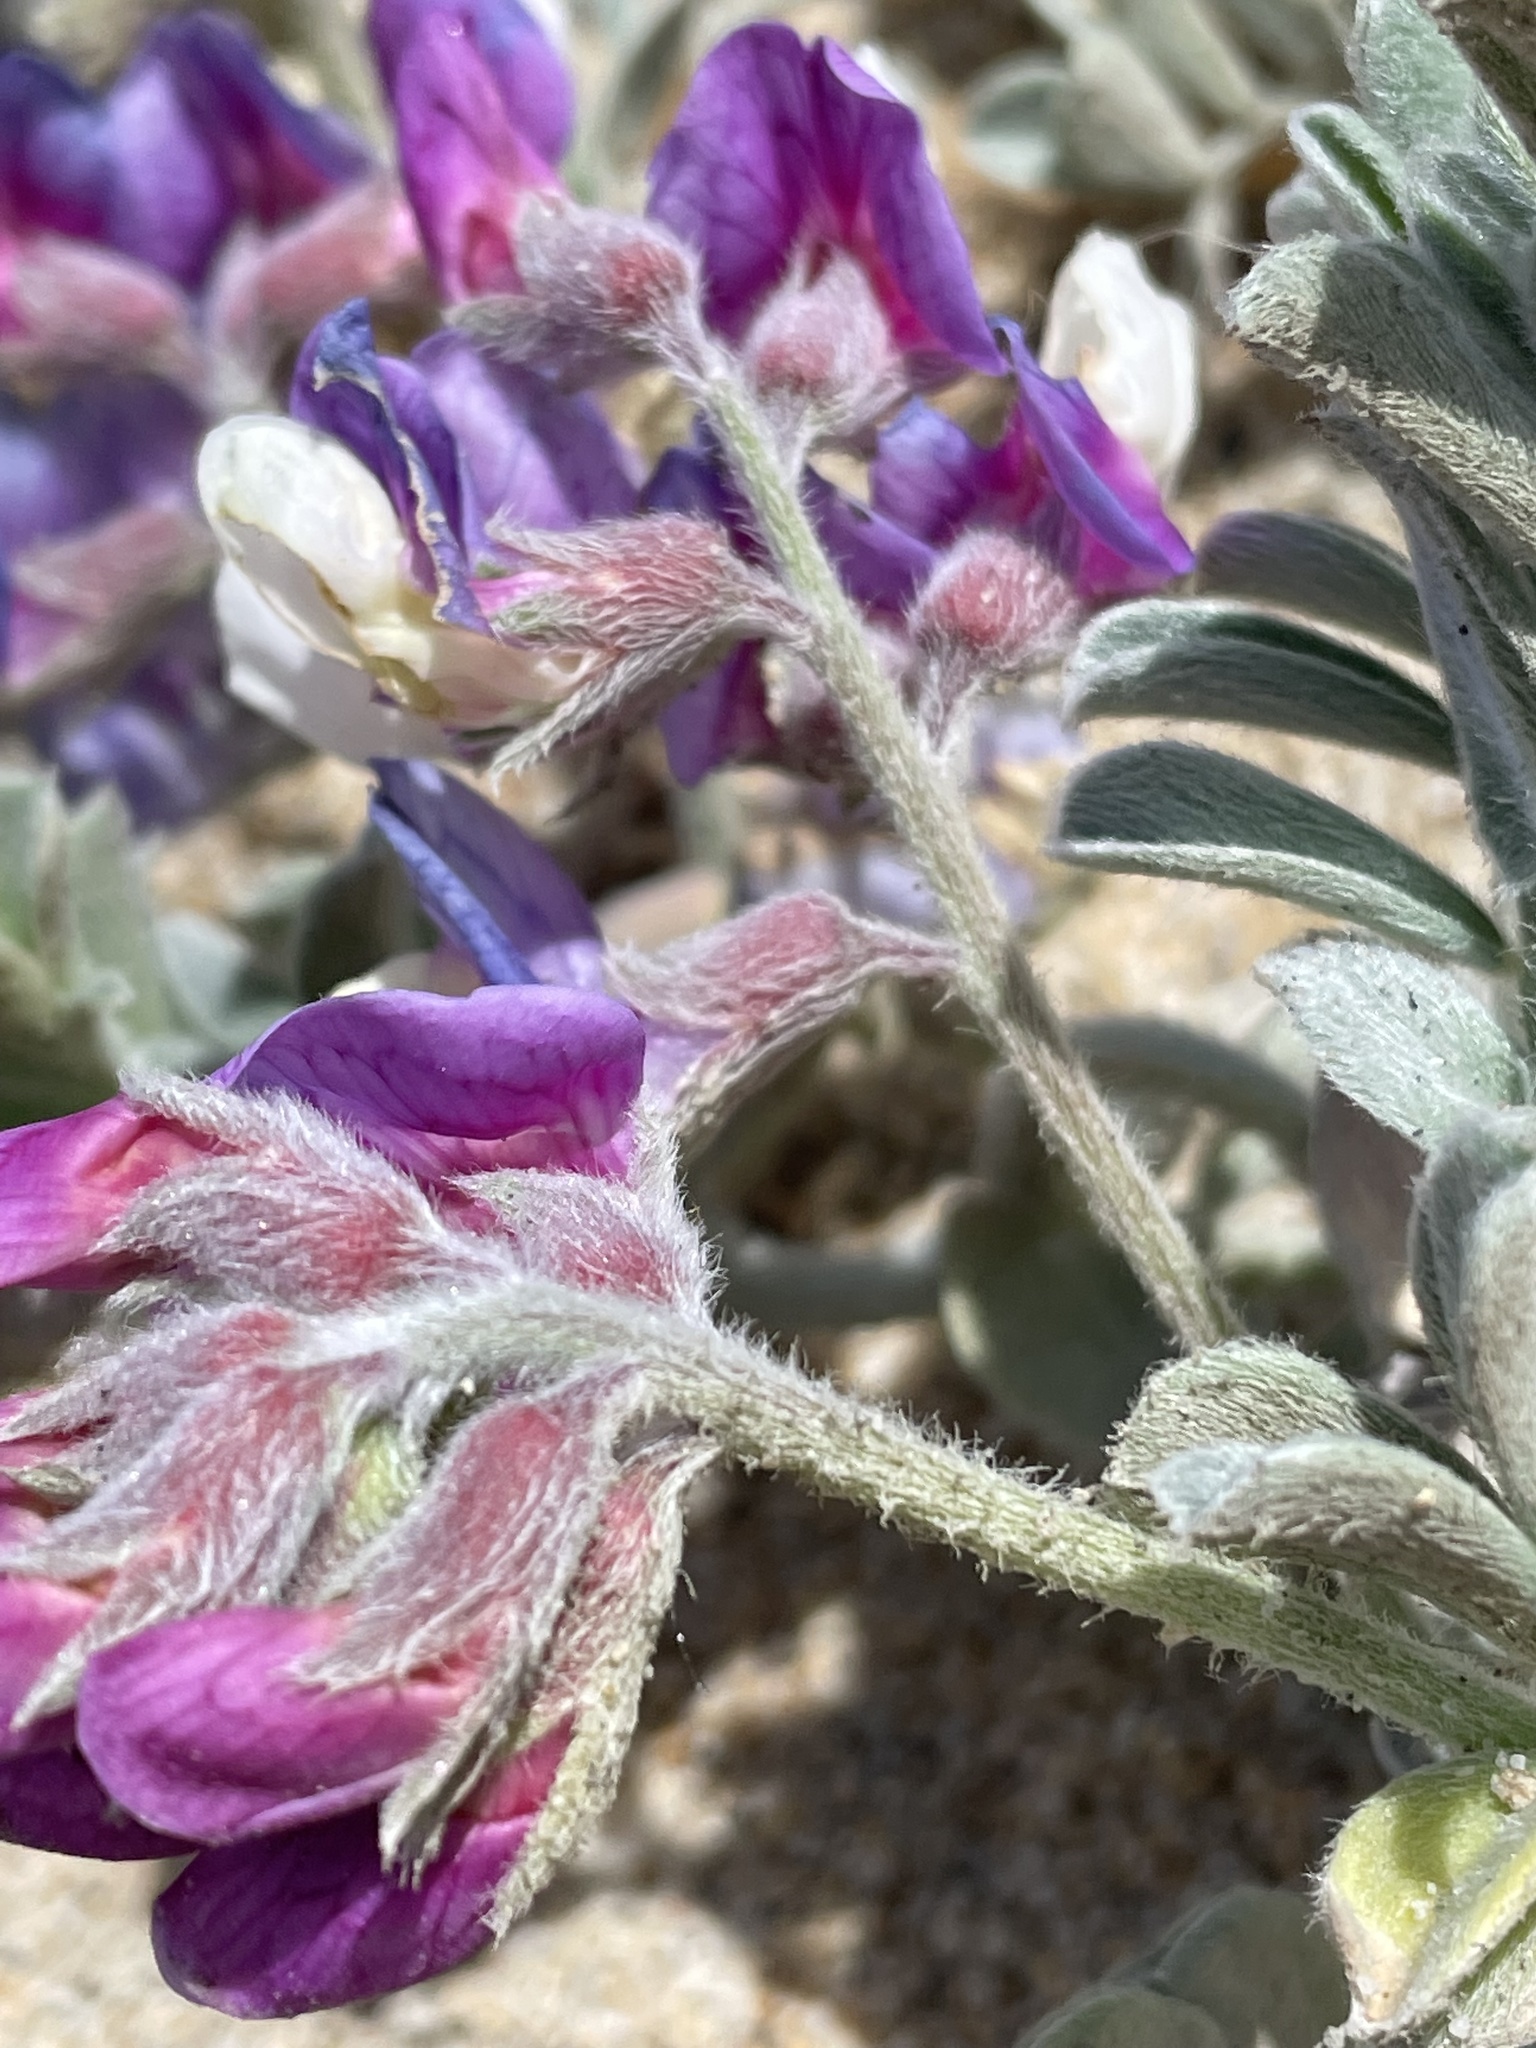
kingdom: Plantae
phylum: Tracheophyta
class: Magnoliopsida
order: Fabales
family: Fabaceae
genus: Lathyrus
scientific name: Lathyrus littoralis
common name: Dune sweet pea
